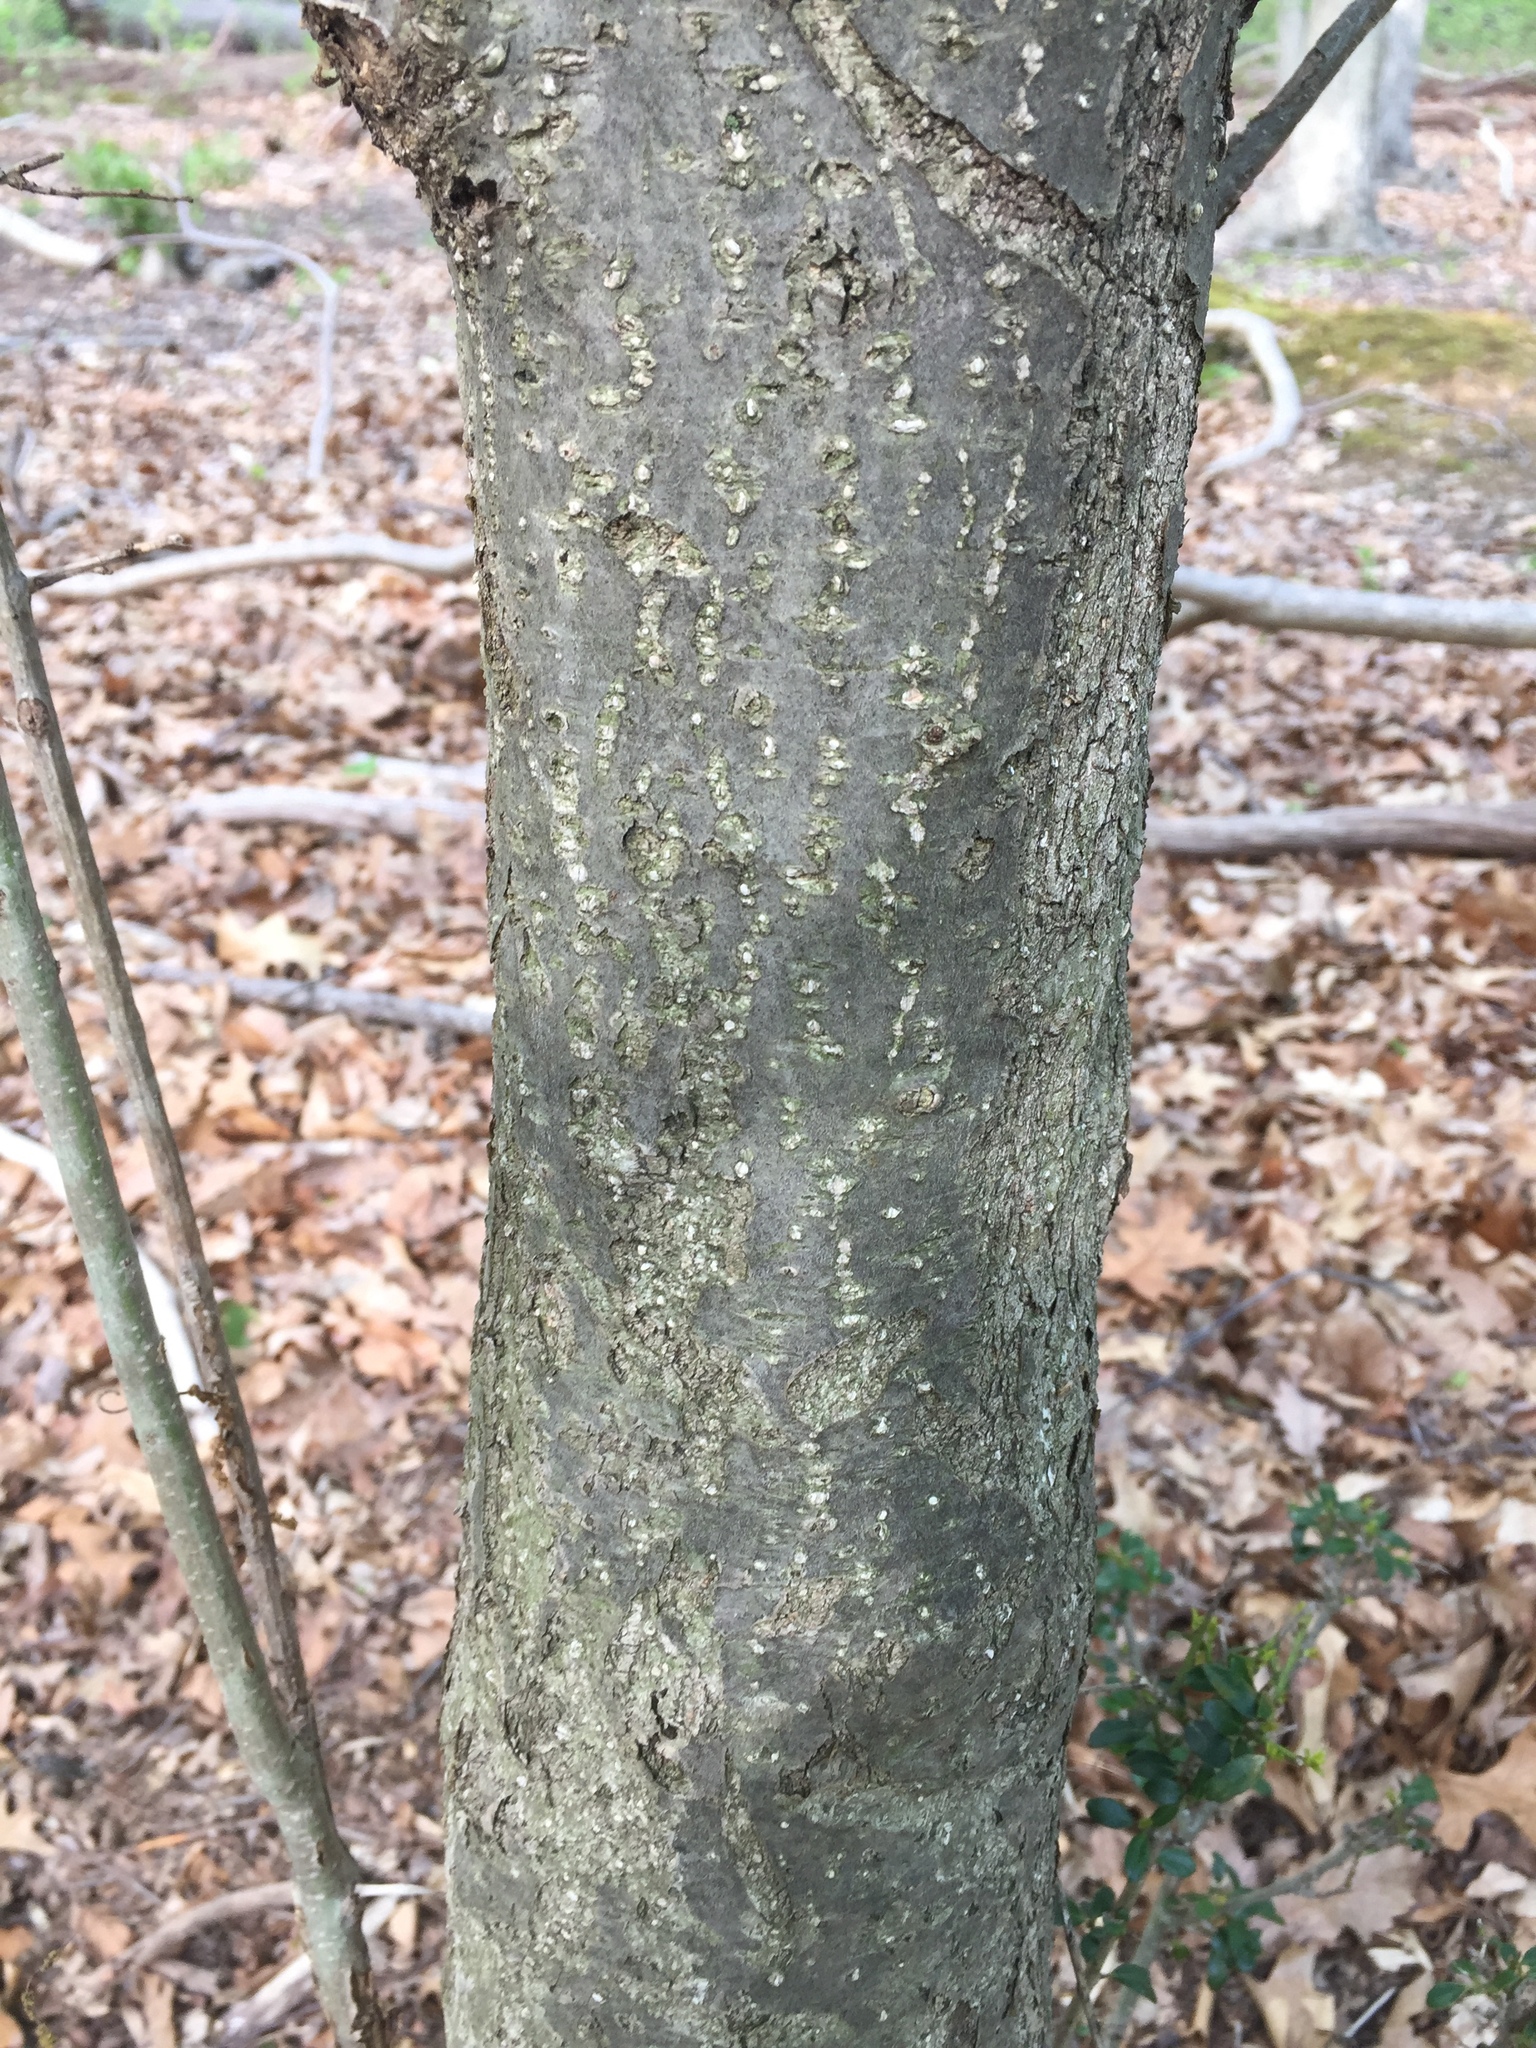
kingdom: Plantae
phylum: Tracheophyta
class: Magnoliopsida
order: Aquifoliales
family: Aquifoliaceae
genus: Ilex
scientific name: Ilex crenata
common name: Japanese holly
